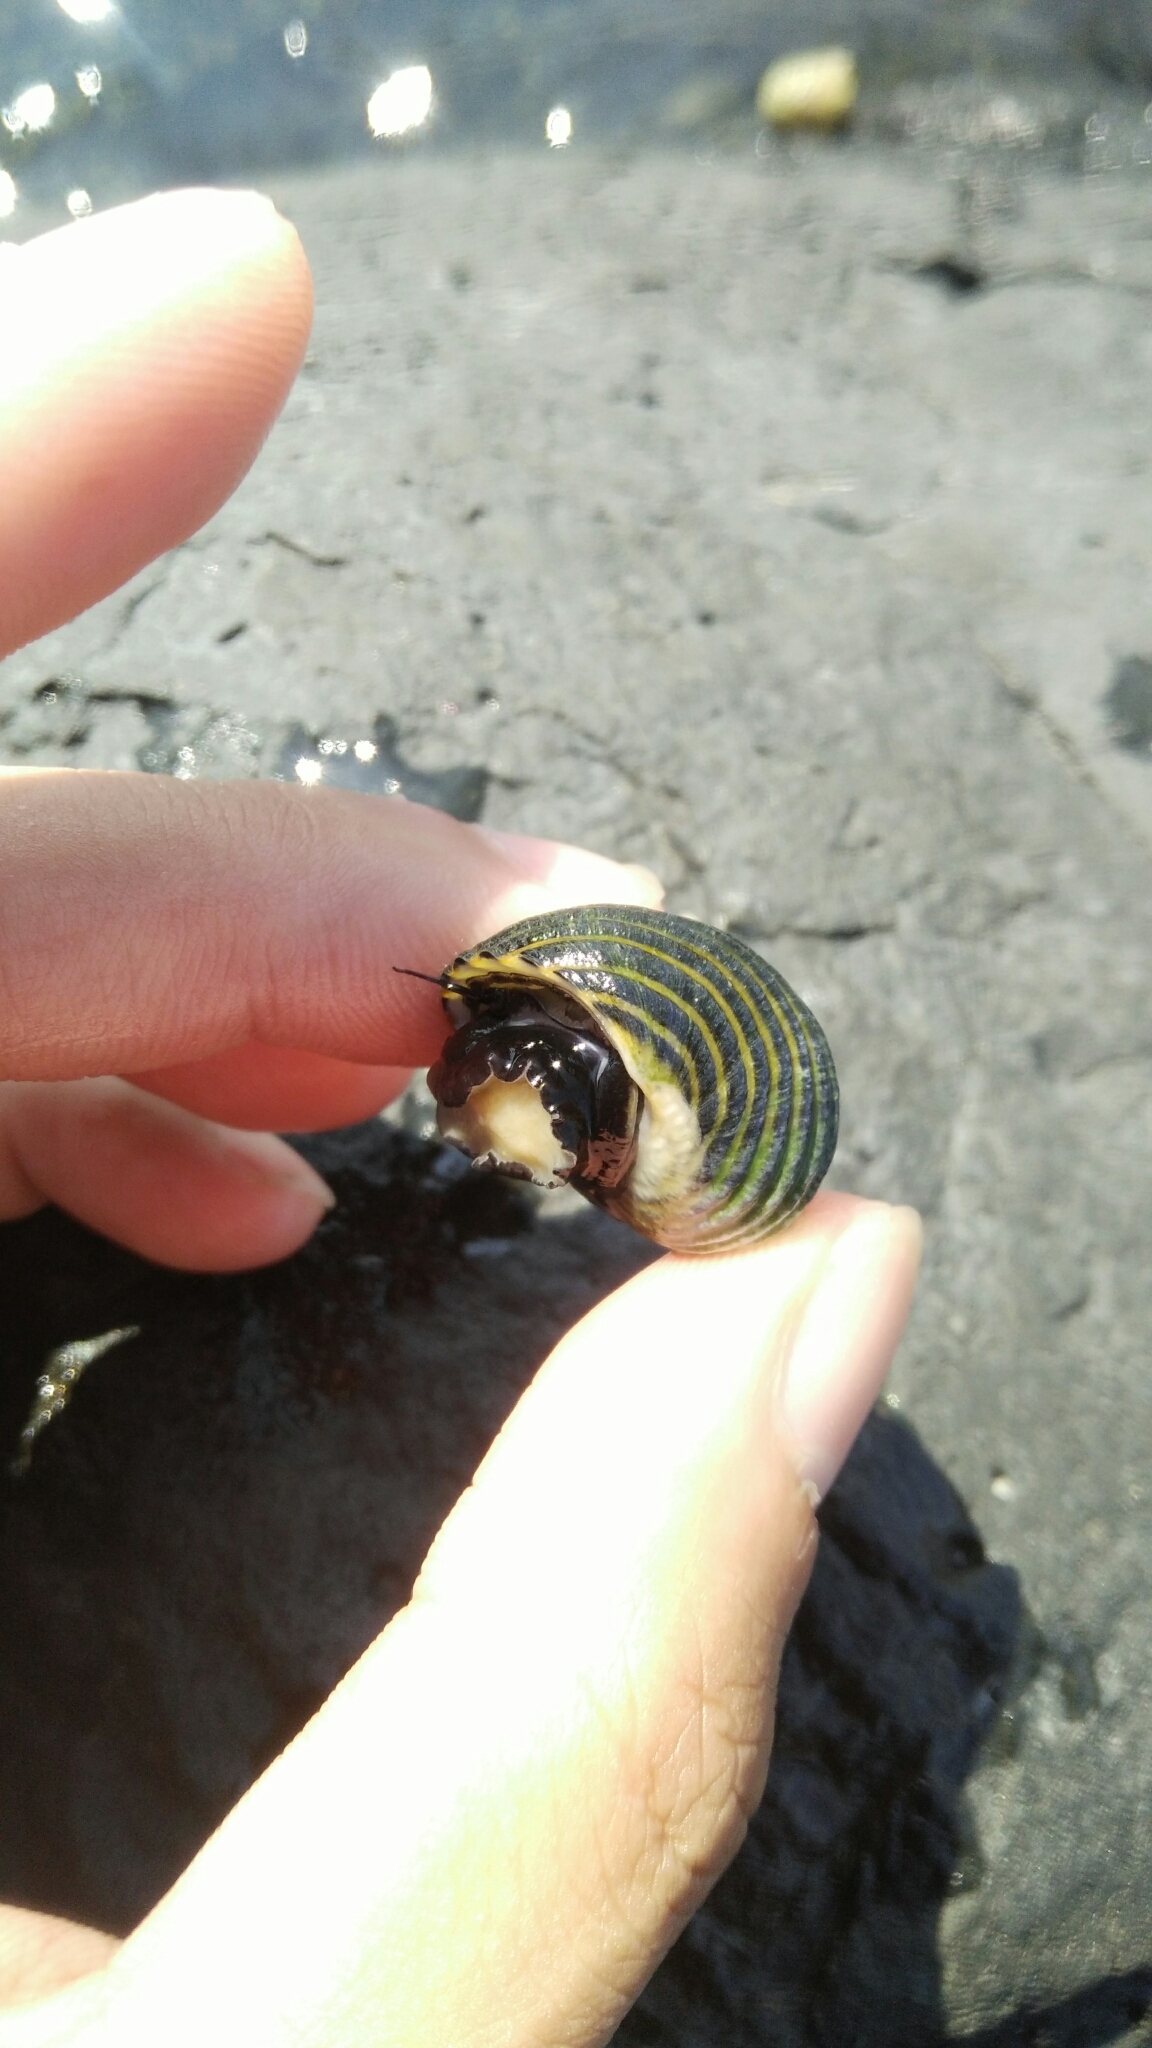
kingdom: Animalia
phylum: Mollusca
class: Gastropoda
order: Cycloneritida
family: Neritidae
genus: Nerita
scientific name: Nerita costata
